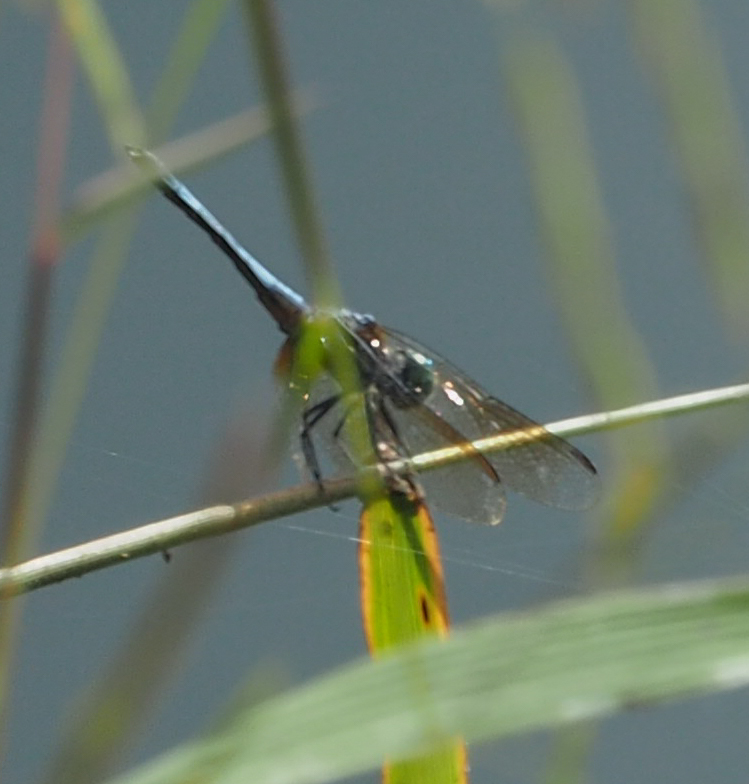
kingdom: Animalia
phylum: Arthropoda
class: Insecta
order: Odonata
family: Libellulidae
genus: Pachydiplax
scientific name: Pachydiplax longipennis
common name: Blue dasher
